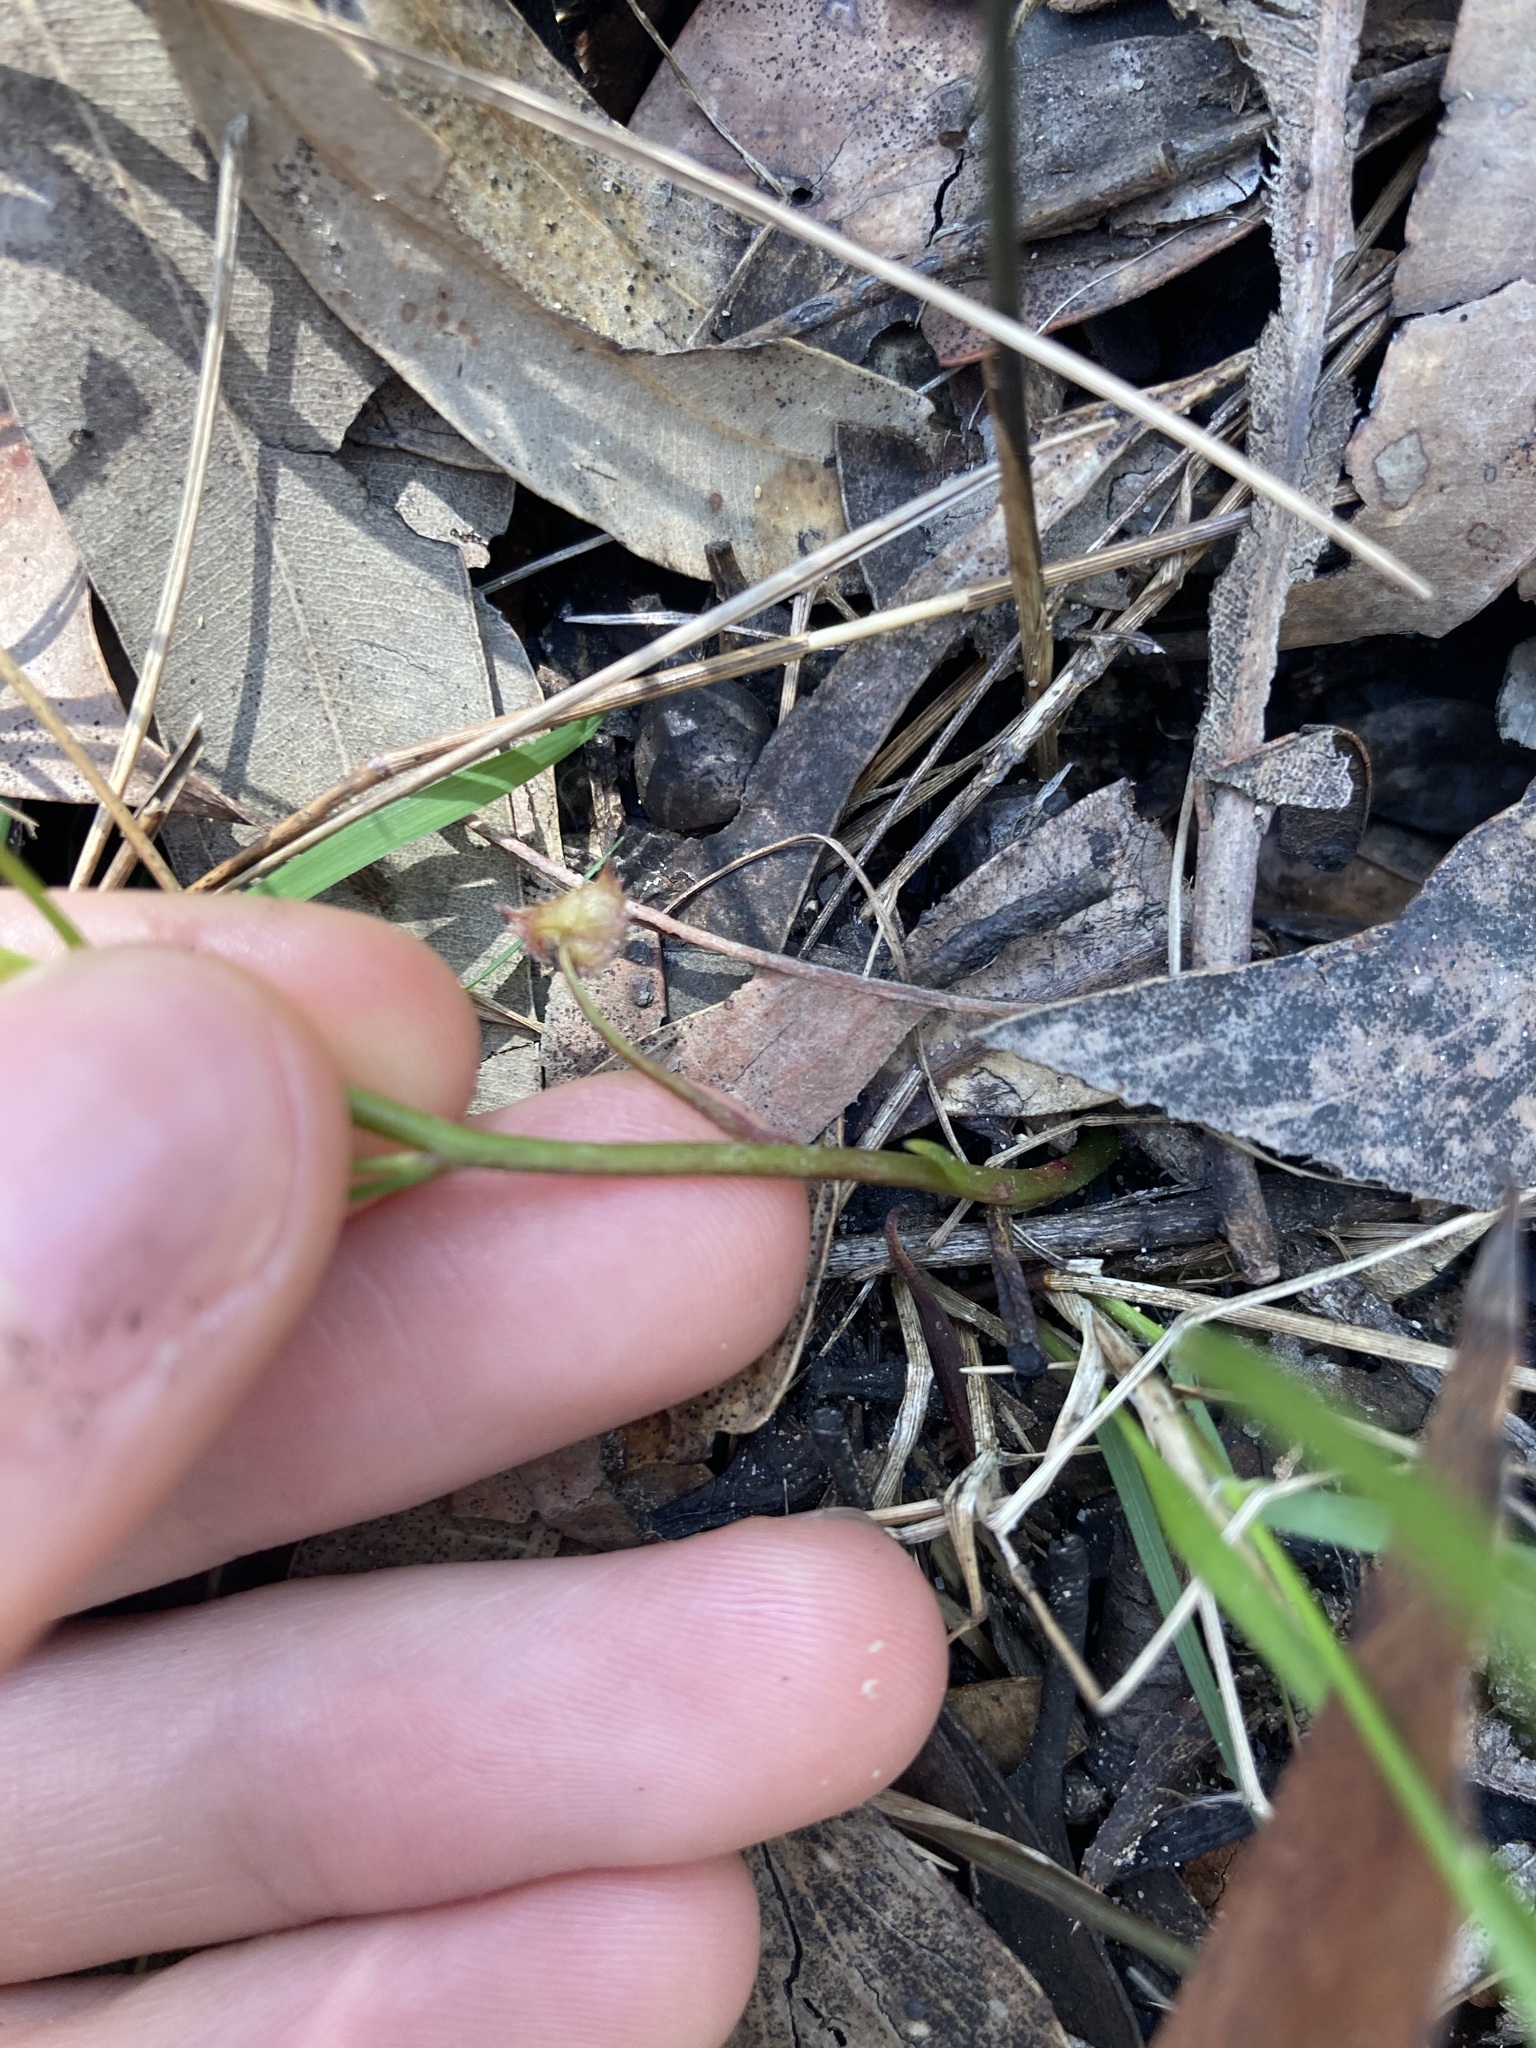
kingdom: Plantae
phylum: Tracheophyta
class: Magnoliopsida
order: Caryophyllales
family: Droseraceae
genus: Drosera
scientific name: Drosera peltata
